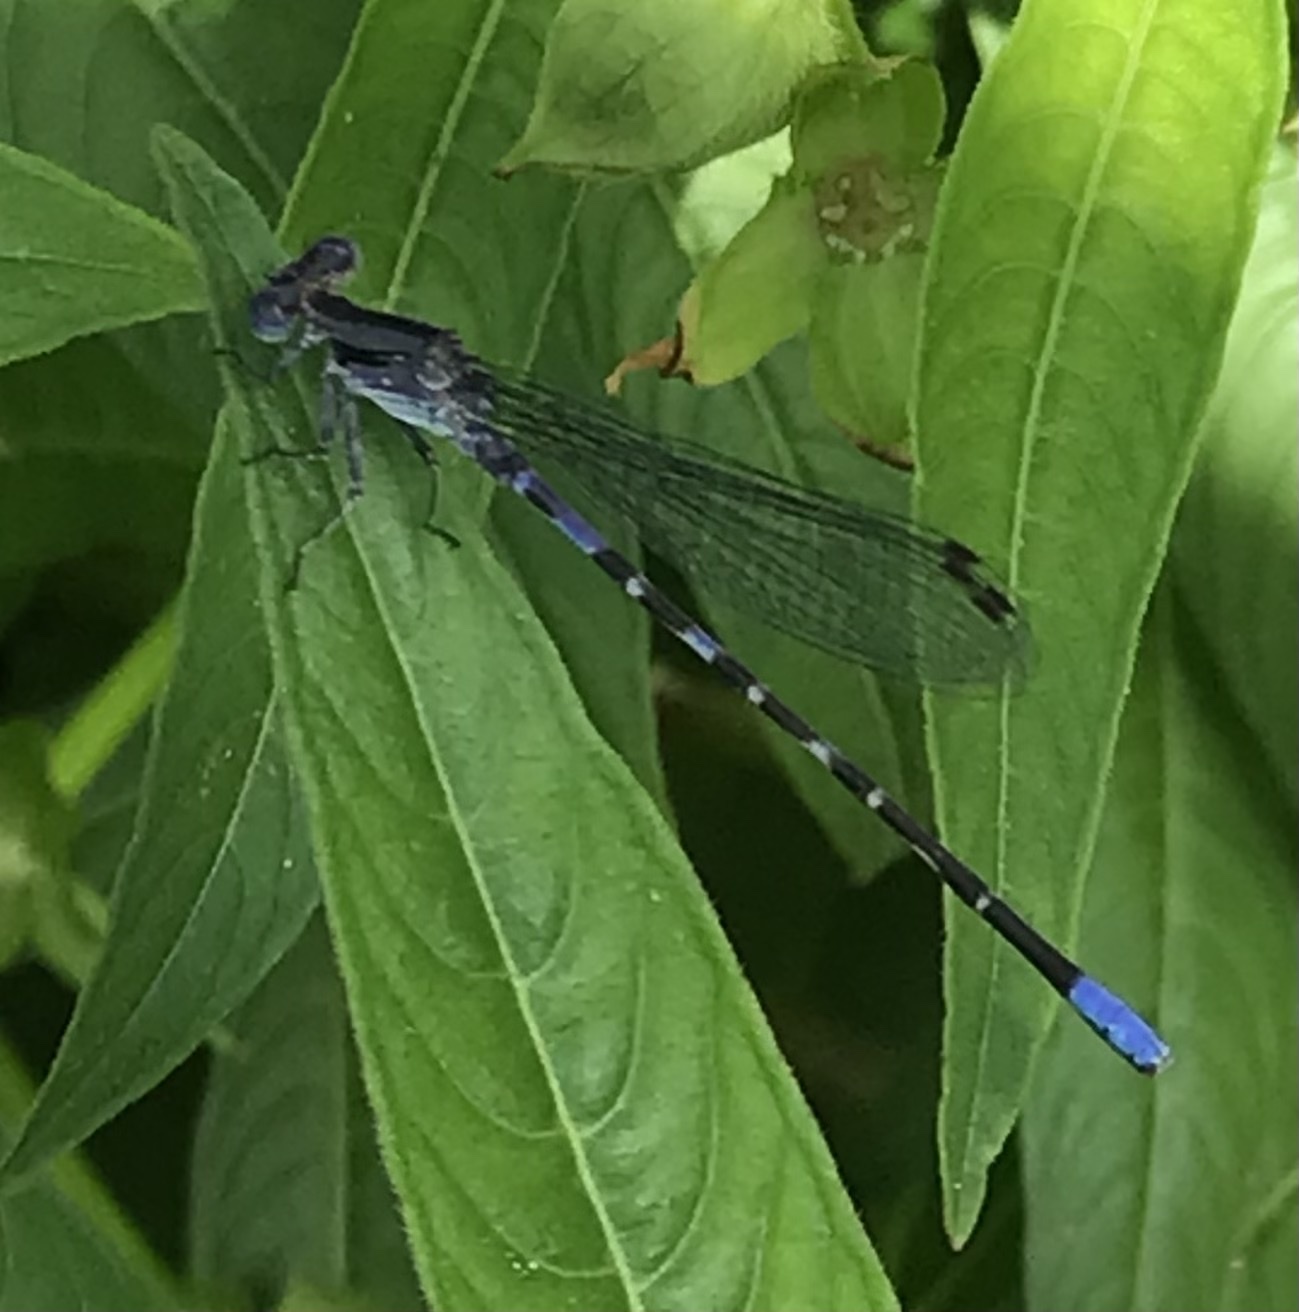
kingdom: Animalia
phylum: Arthropoda
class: Insecta
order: Odonata
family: Coenagrionidae
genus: Argia
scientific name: Argia immunda
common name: Kiowa dancer
